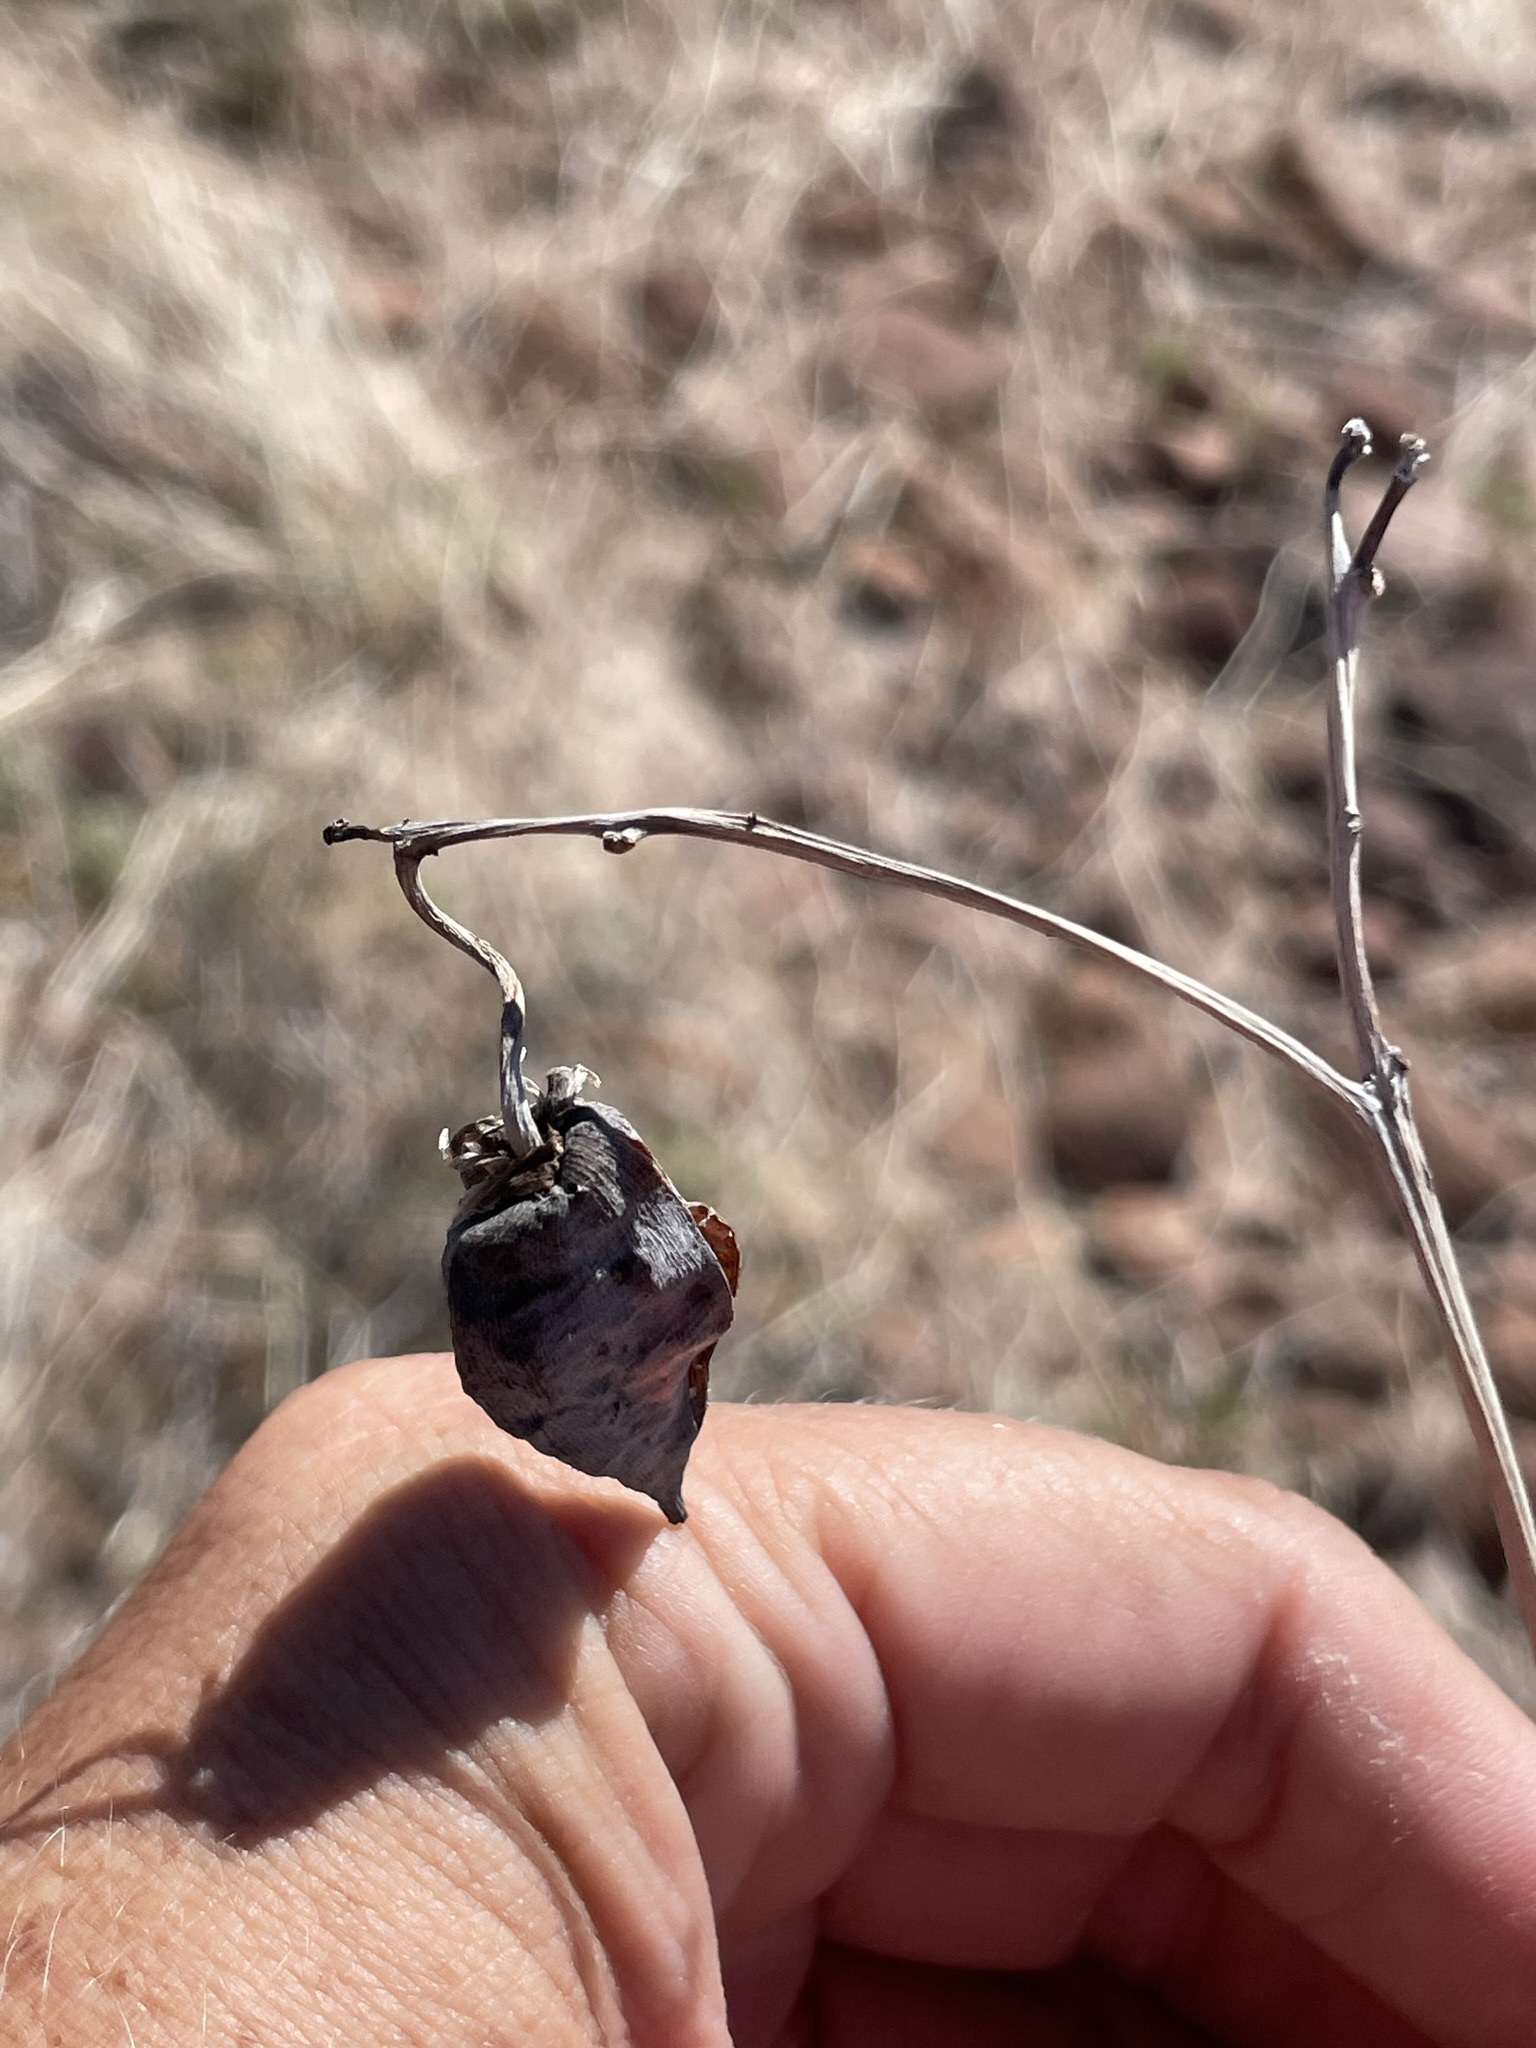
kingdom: Plantae
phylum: Tracheophyta
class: Magnoliopsida
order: Malvales
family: Cochlospermaceae
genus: Cochlospermum
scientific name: Cochlospermum palmatifidum
